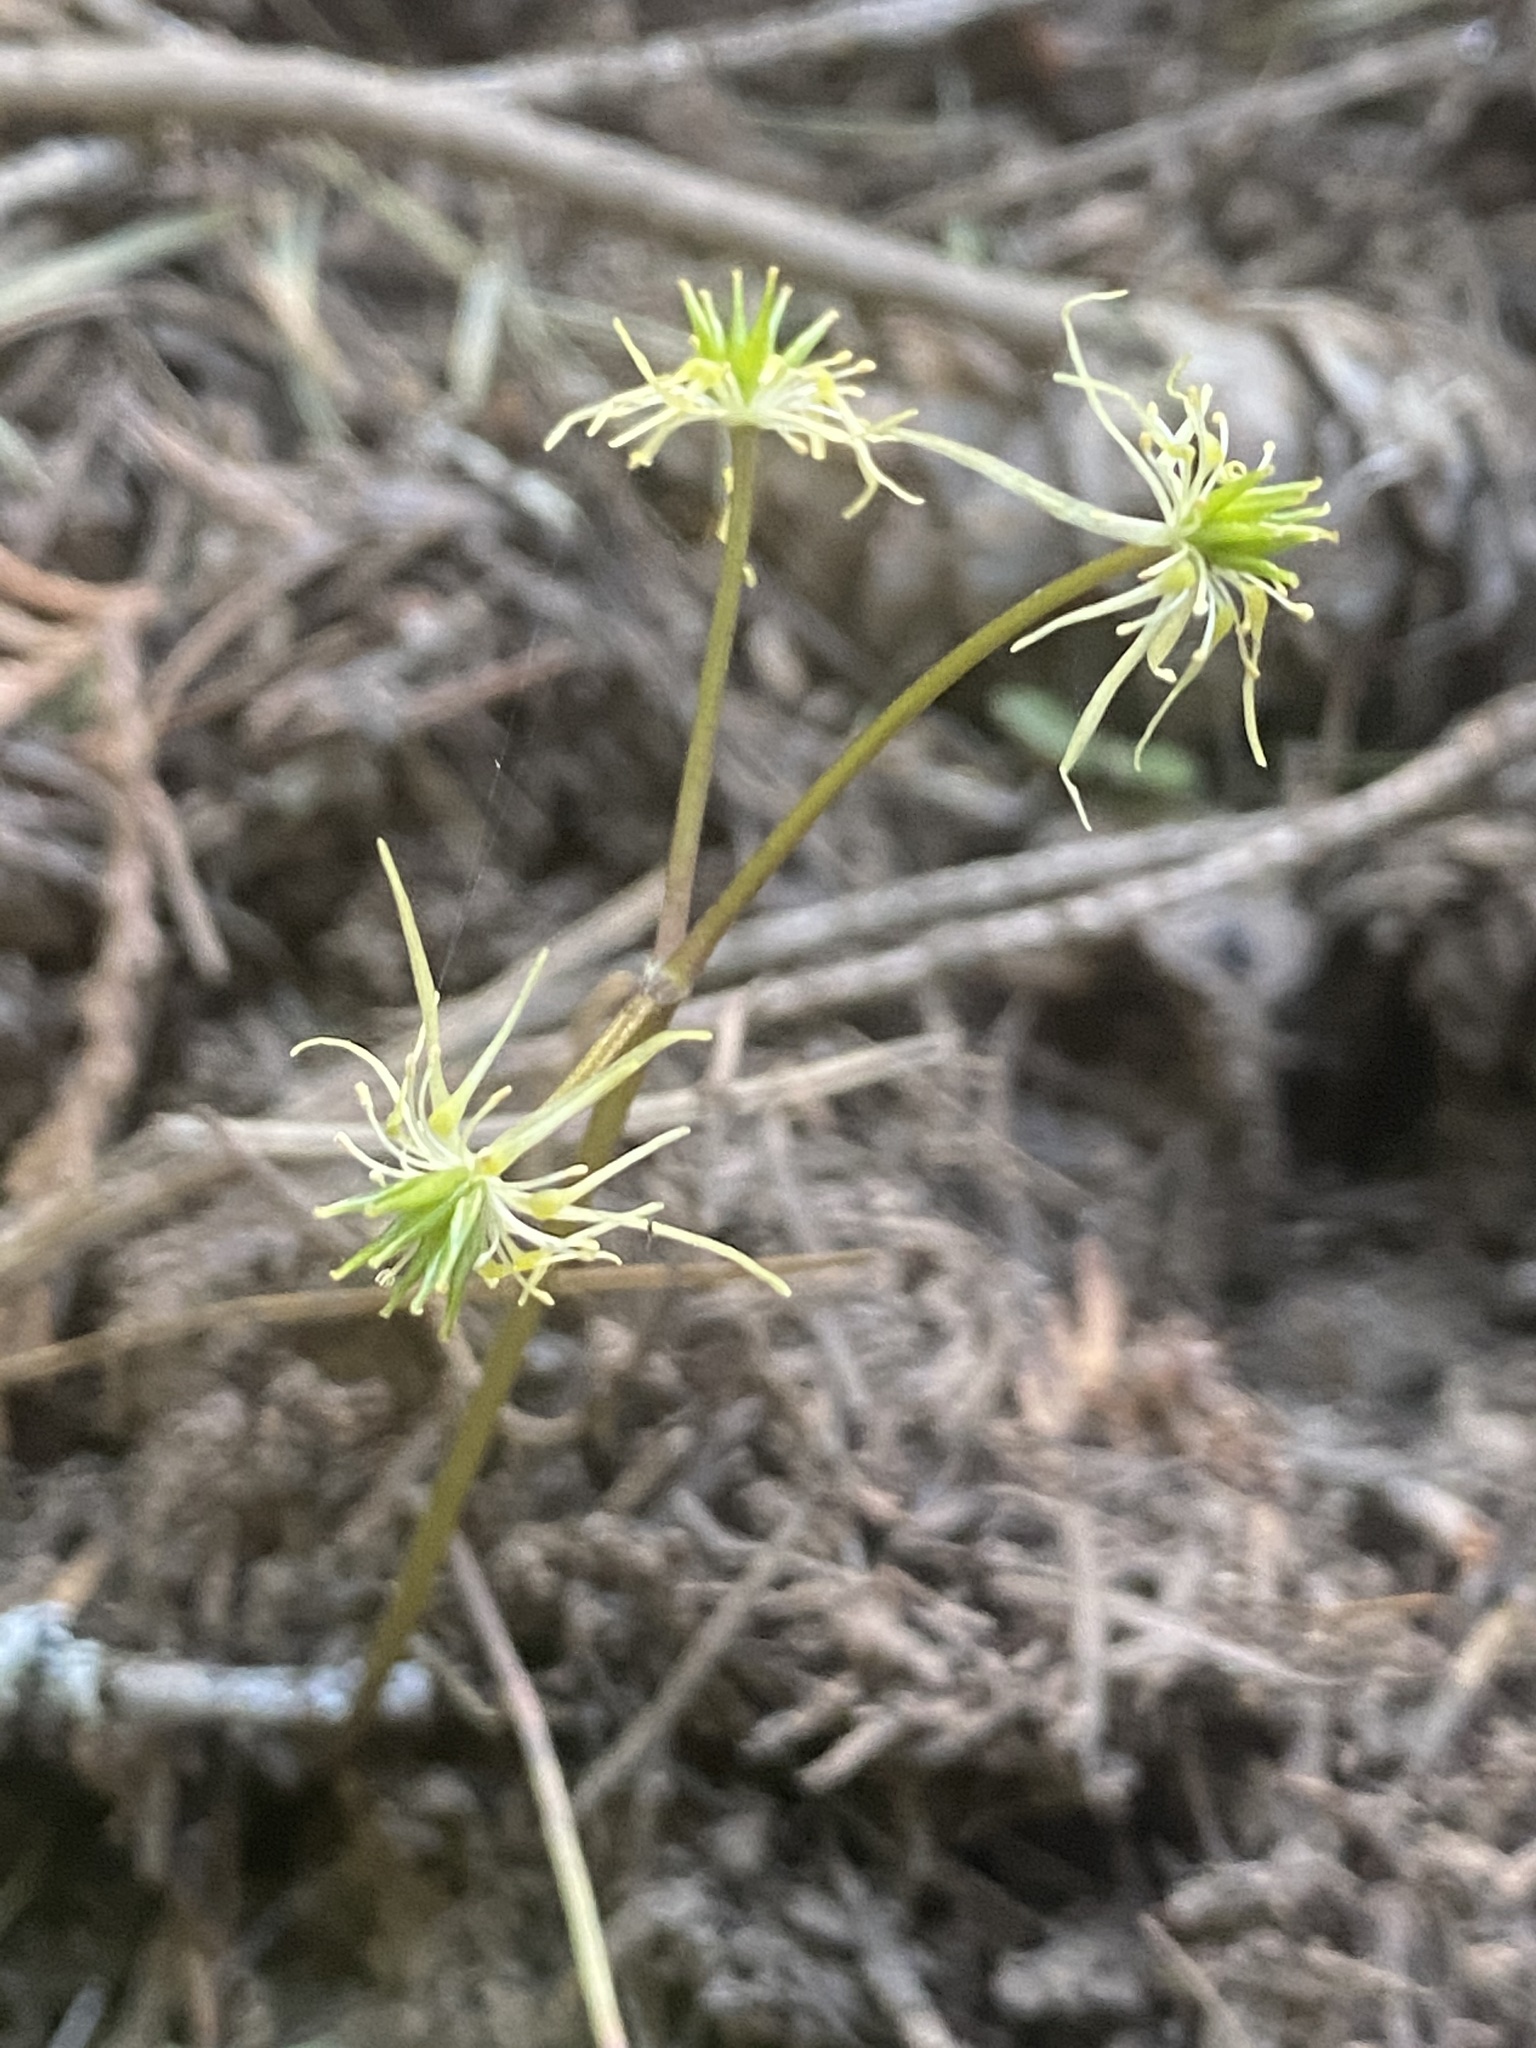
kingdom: Plantae
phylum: Tracheophyta
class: Magnoliopsida
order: Ranunculales
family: Ranunculaceae
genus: Coptis
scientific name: Coptis occidentalis
